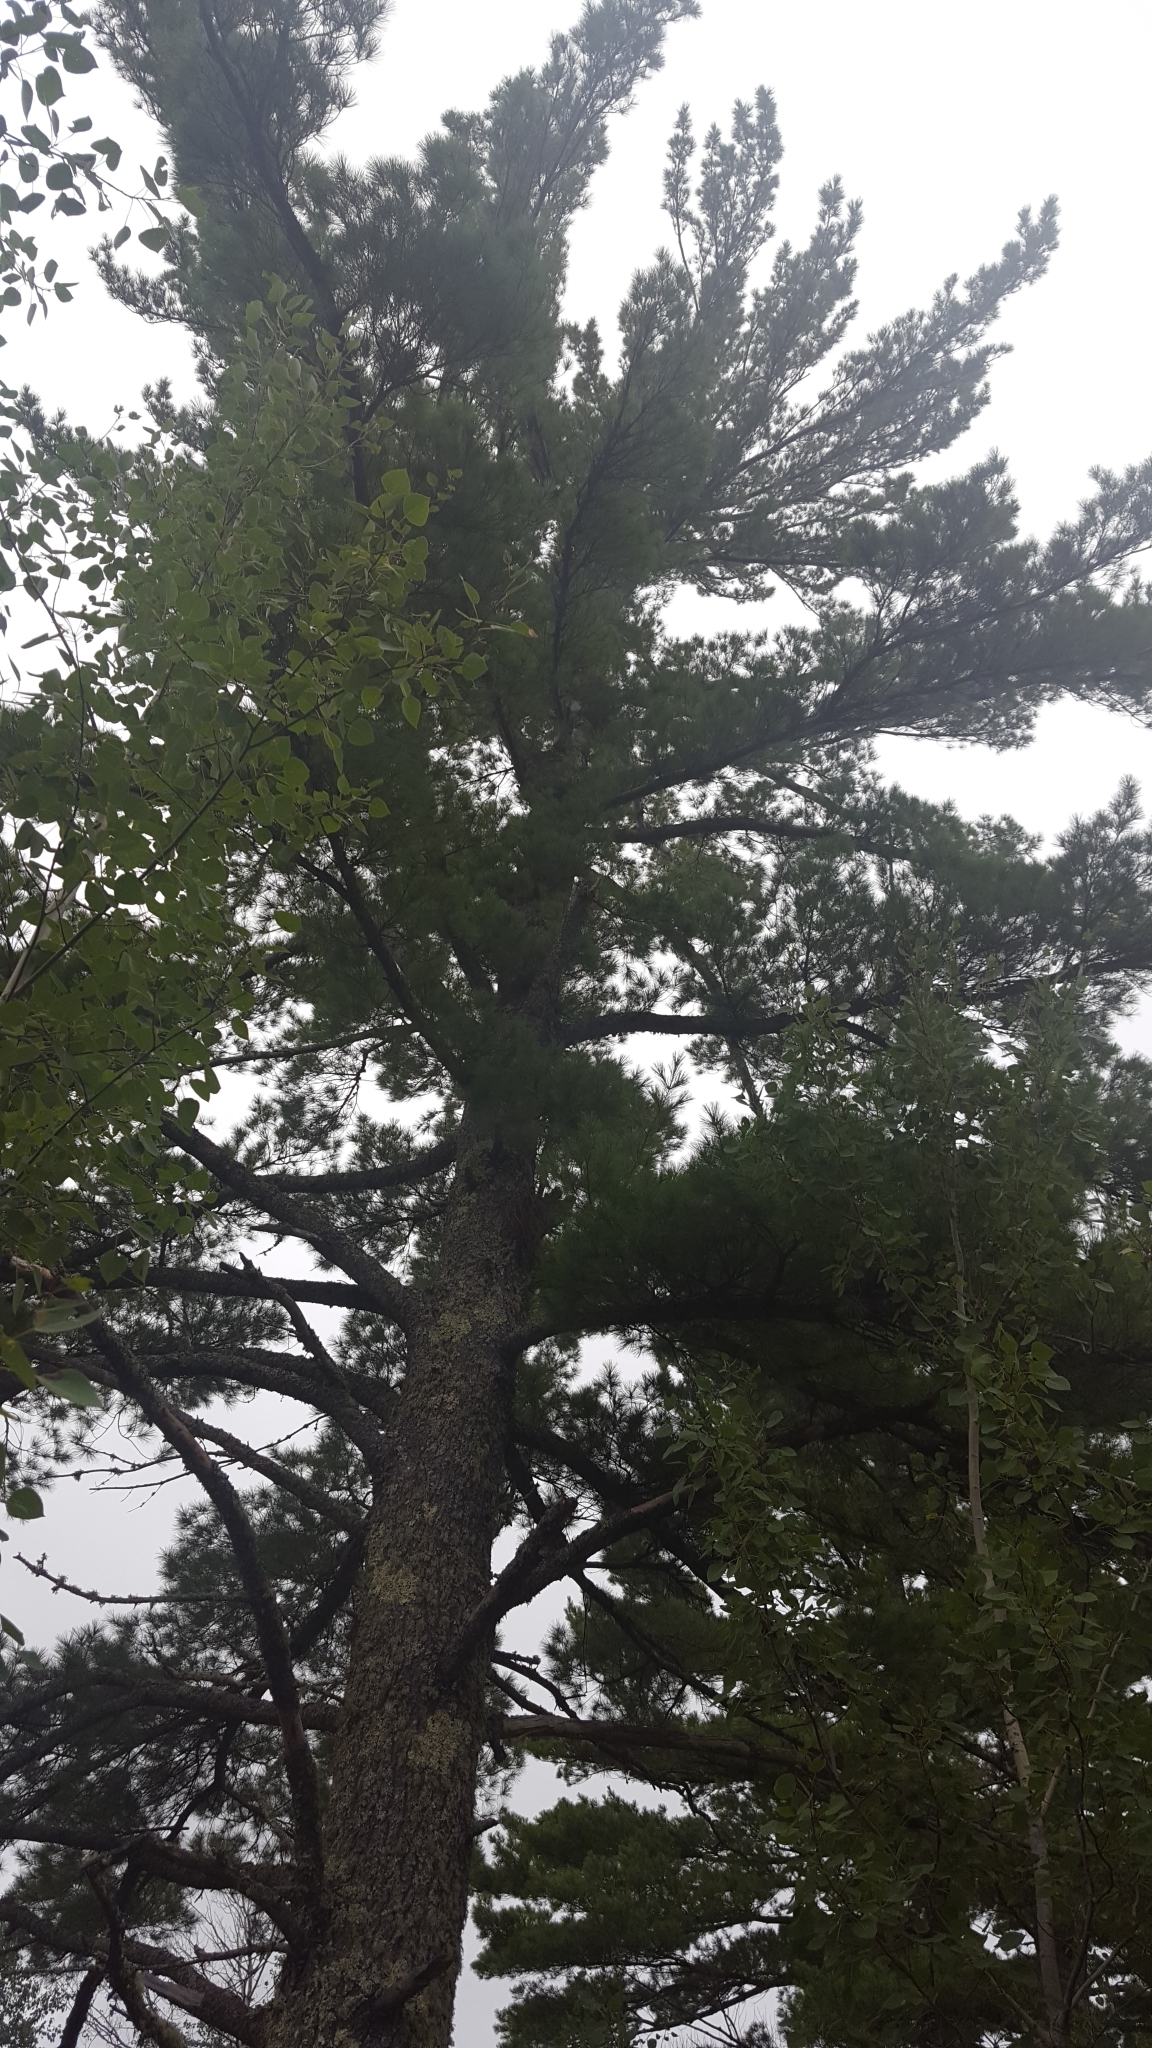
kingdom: Plantae
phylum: Tracheophyta
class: Pinopsida
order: Pinales
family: Pinaceae
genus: Pinus
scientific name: Pinus strobus
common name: Weymouth pine
